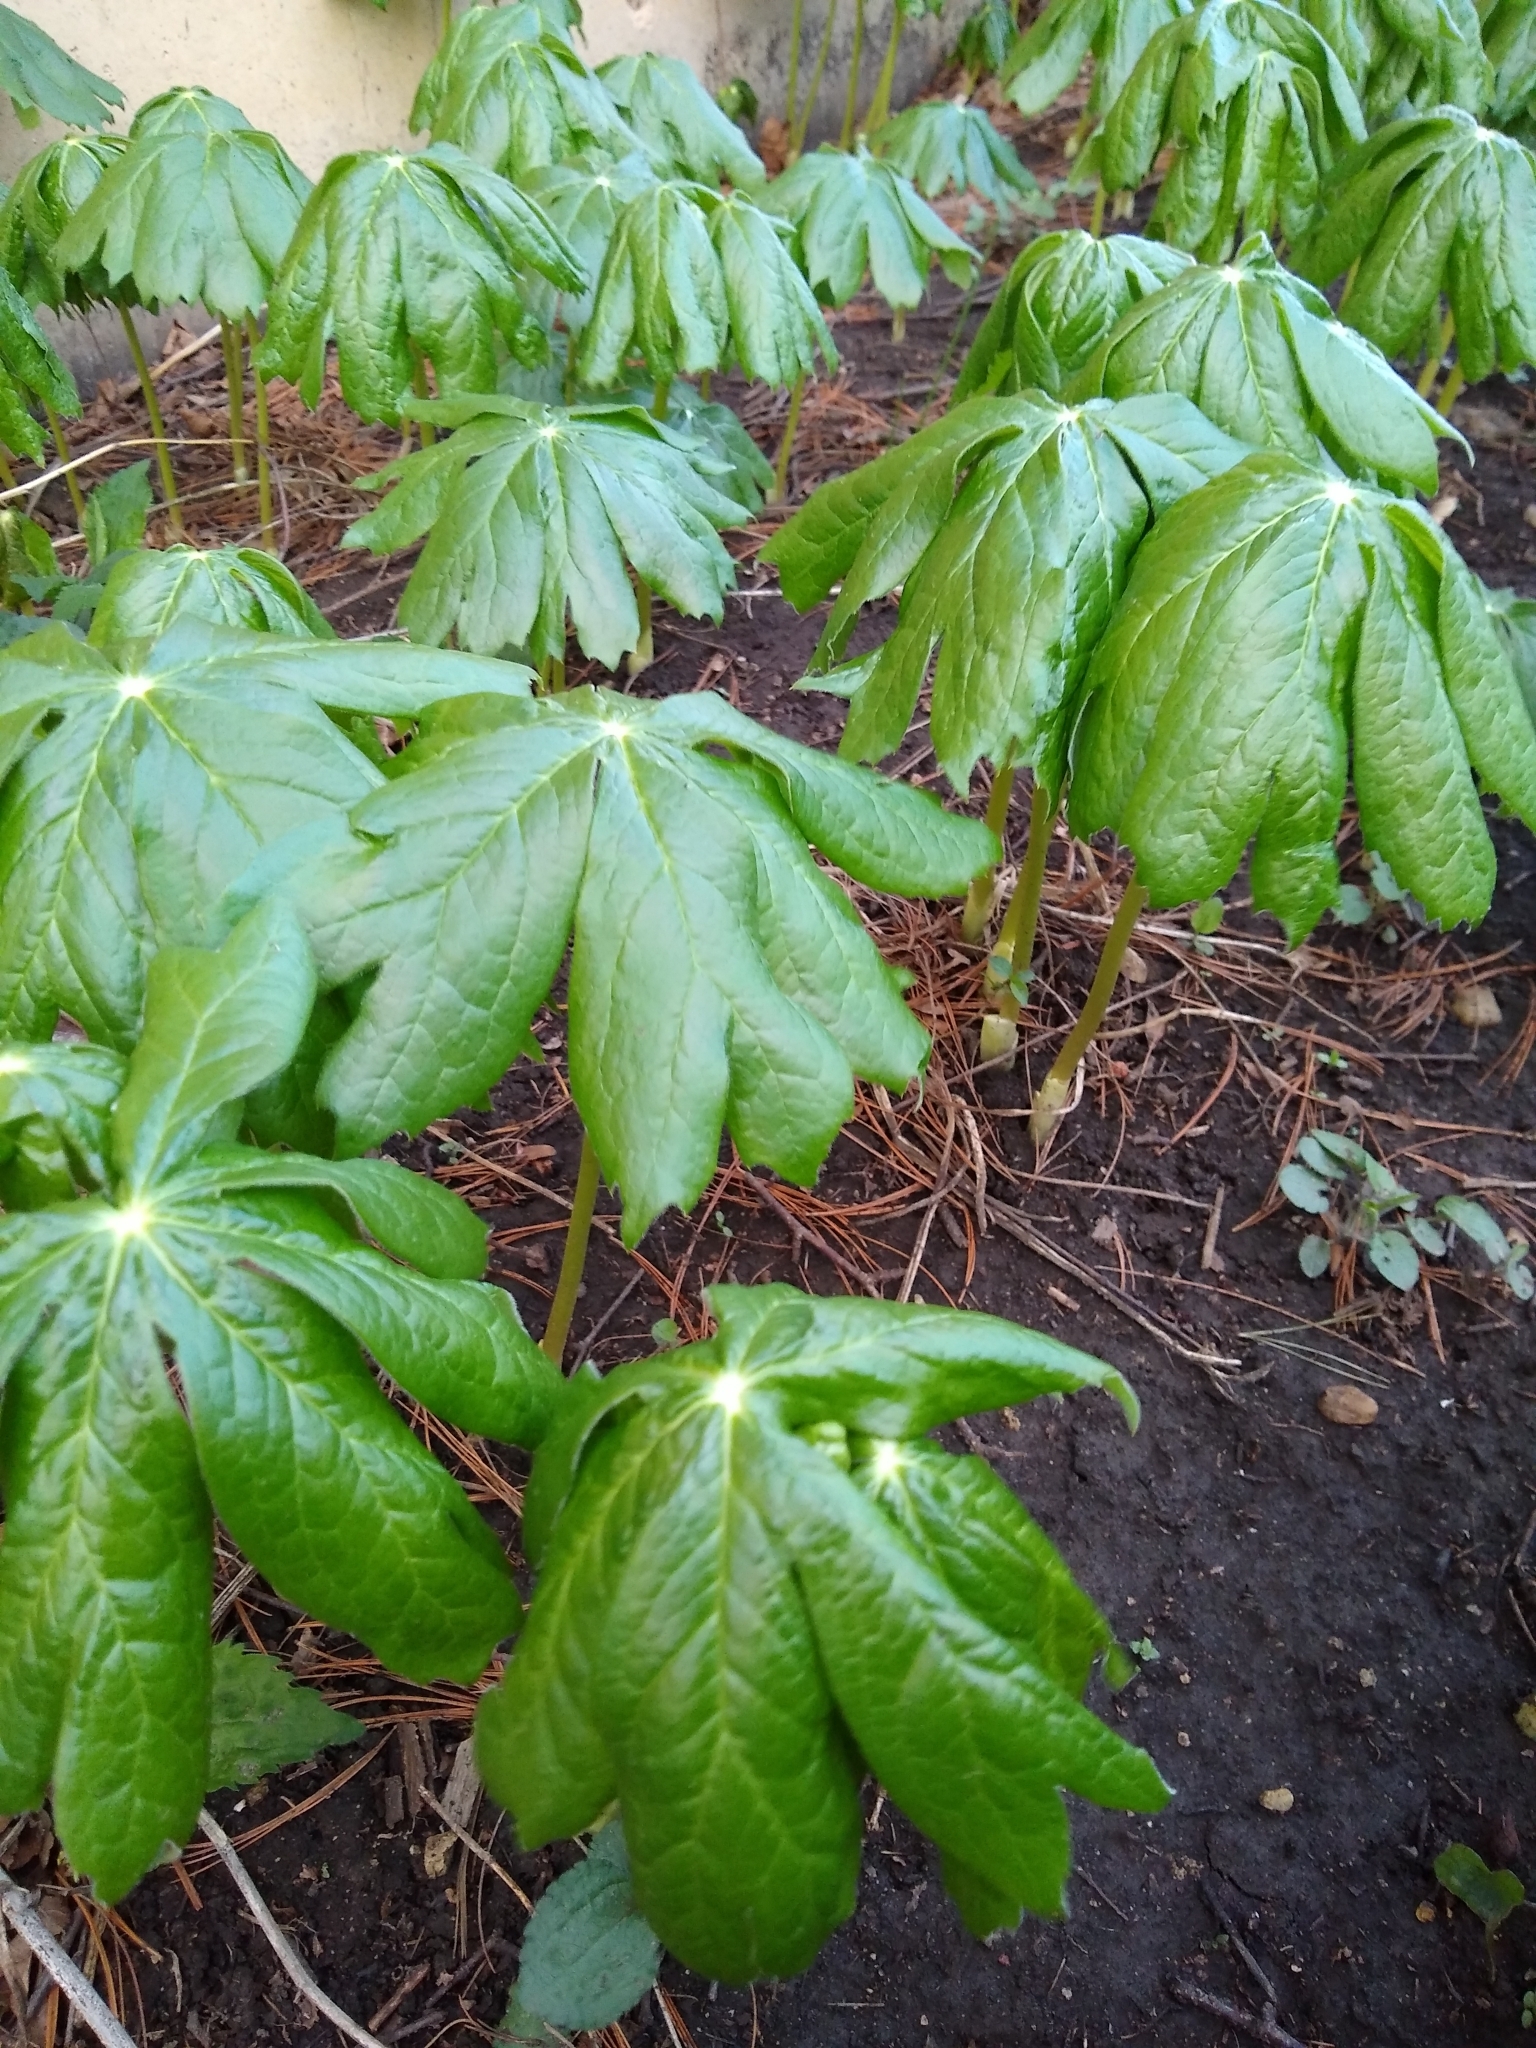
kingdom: Plantae
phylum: Tracheophyta
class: Magnoliopsida
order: Ranunculales
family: Berberidaceae
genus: Podophyllum
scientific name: Podophyllum peltatum
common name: Wild mandrake
